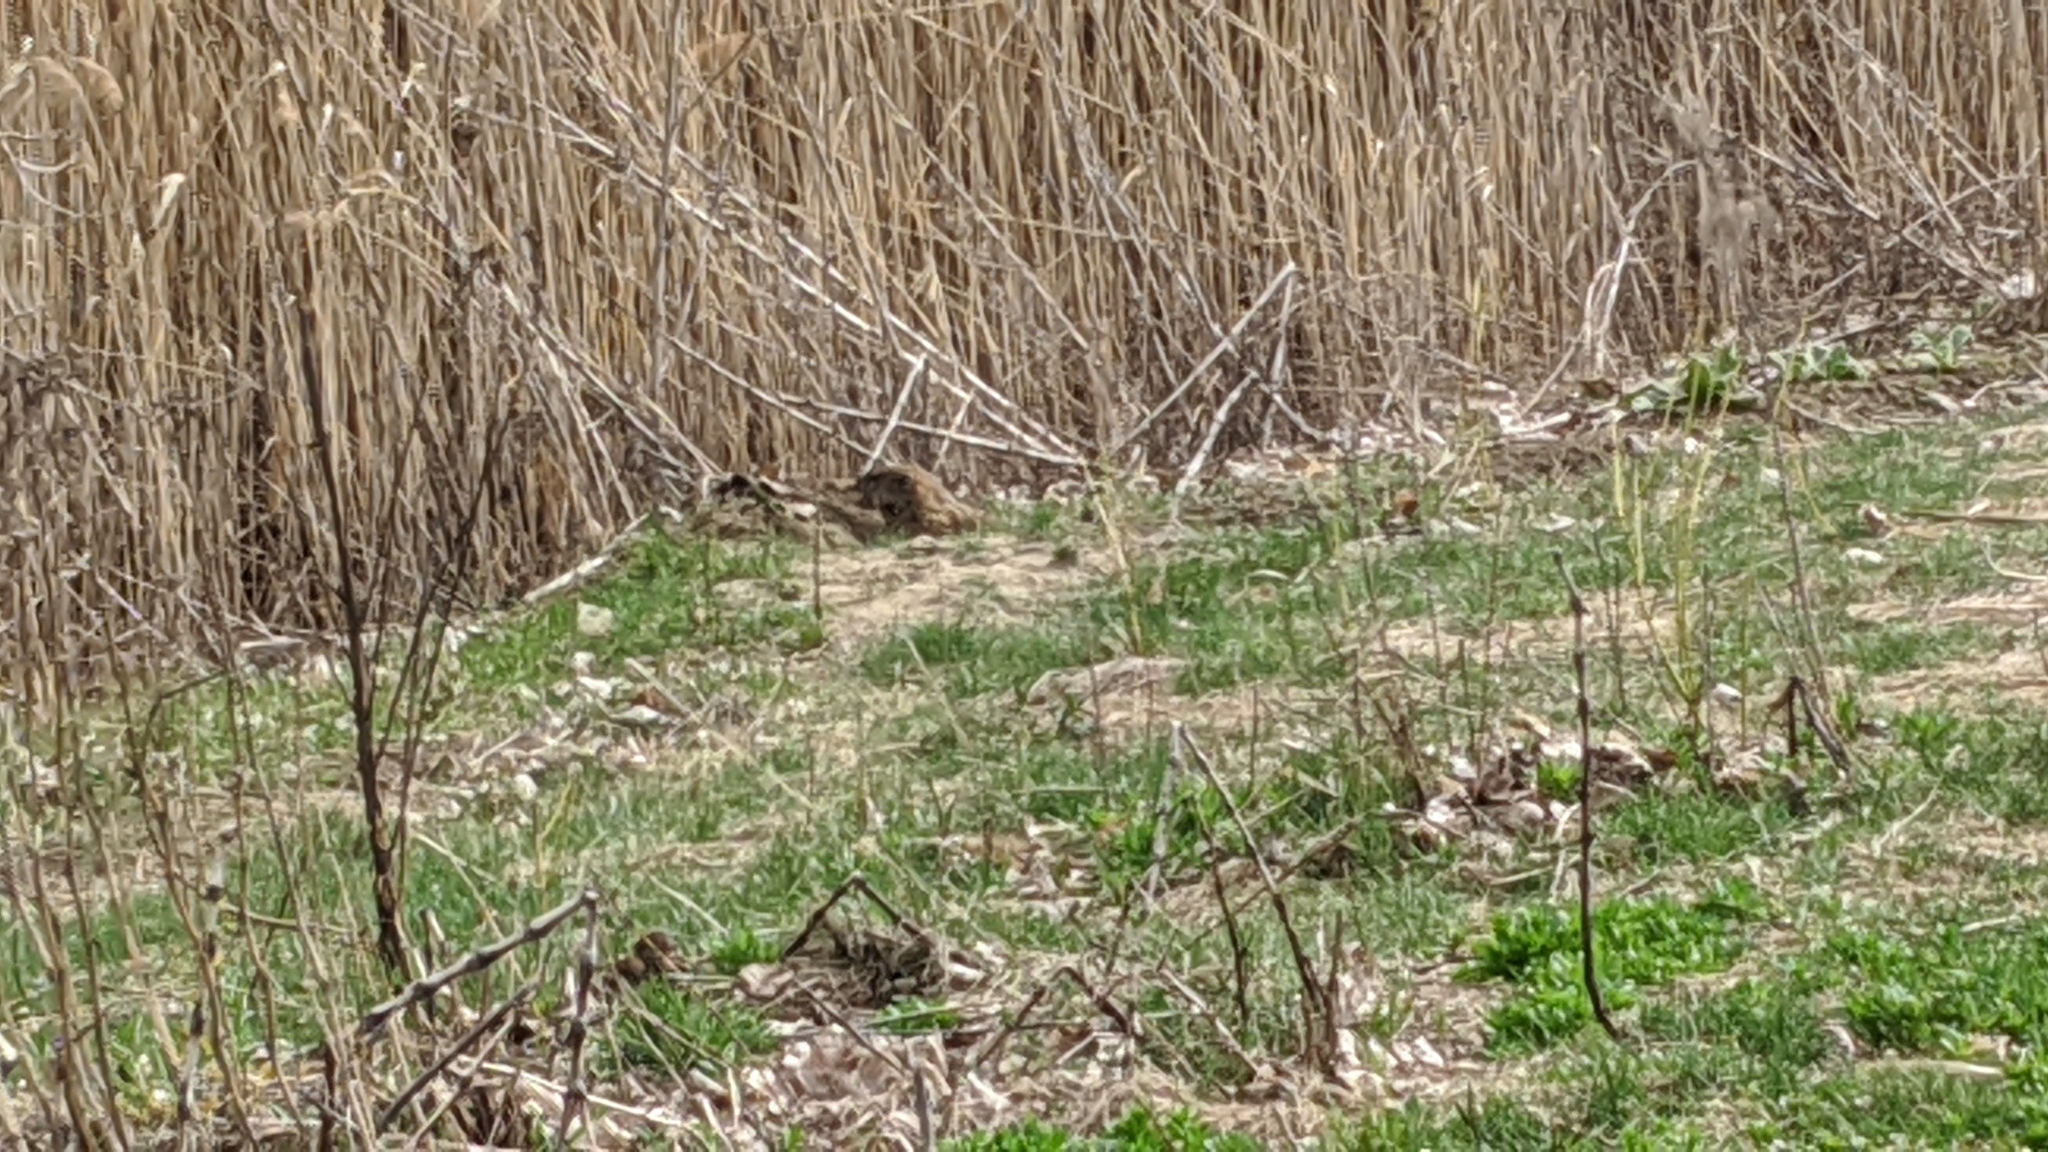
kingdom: Animalia
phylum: Chordata
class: Mammalia
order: Rodentia
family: Sciuridae
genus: Marmota
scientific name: Marmota monax
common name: Groundhog
